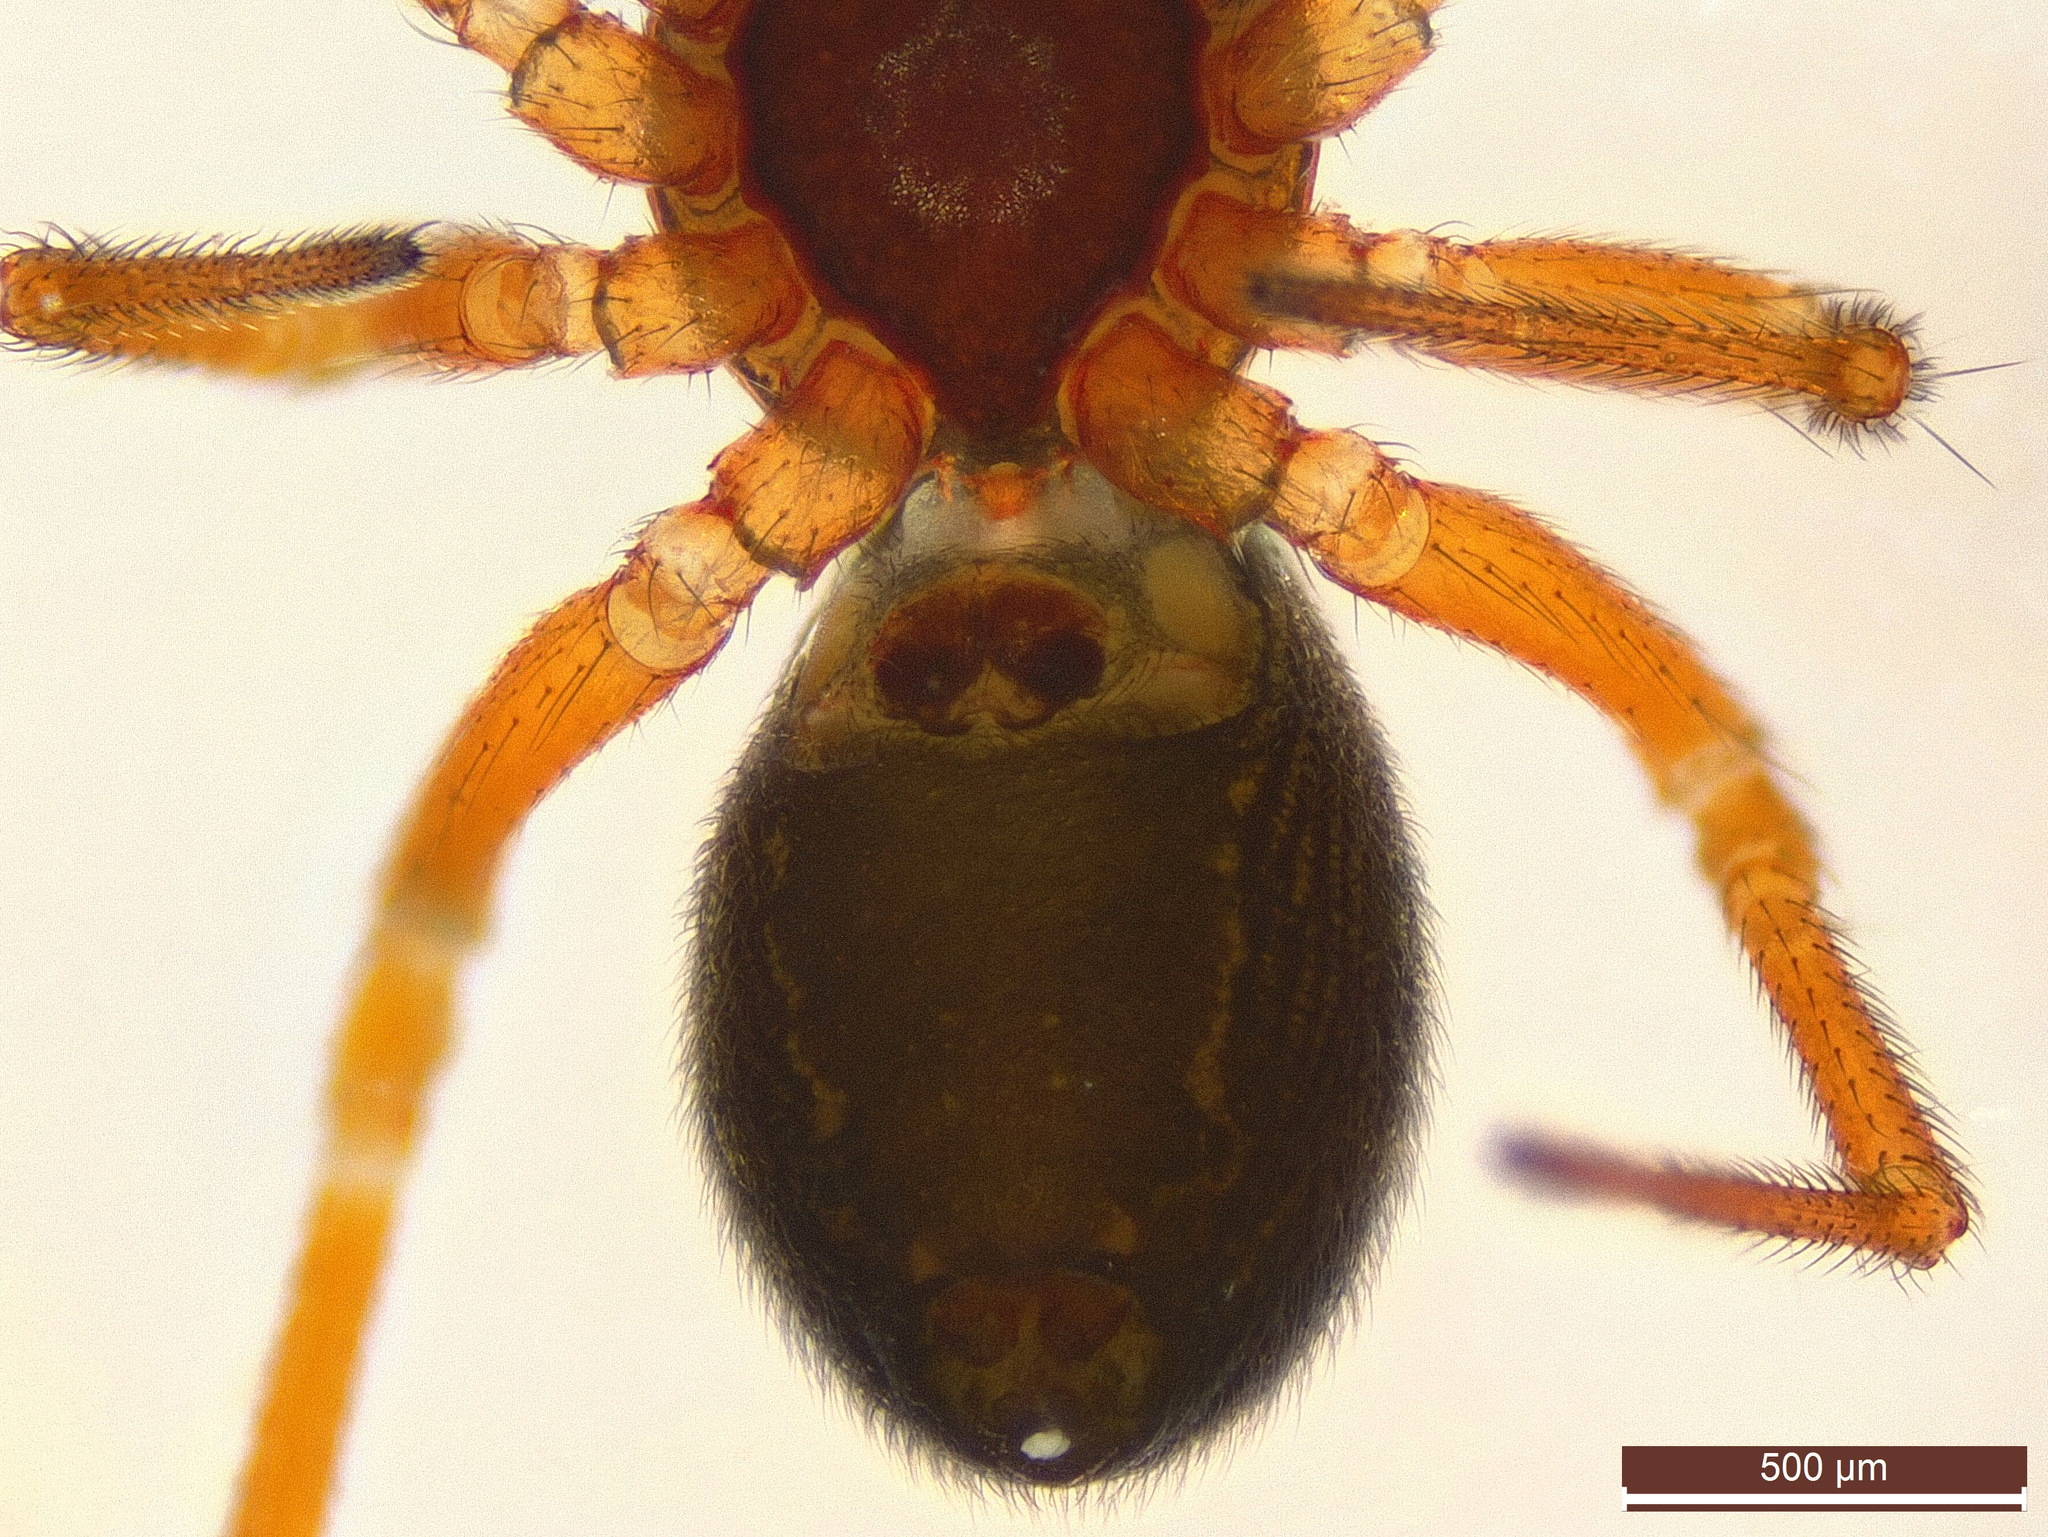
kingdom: Animalia
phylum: Arthropoda
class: Arachnida
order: Araneae
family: Linyphiidae
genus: Gnathonarium
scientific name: Gnathonarium dentatum
